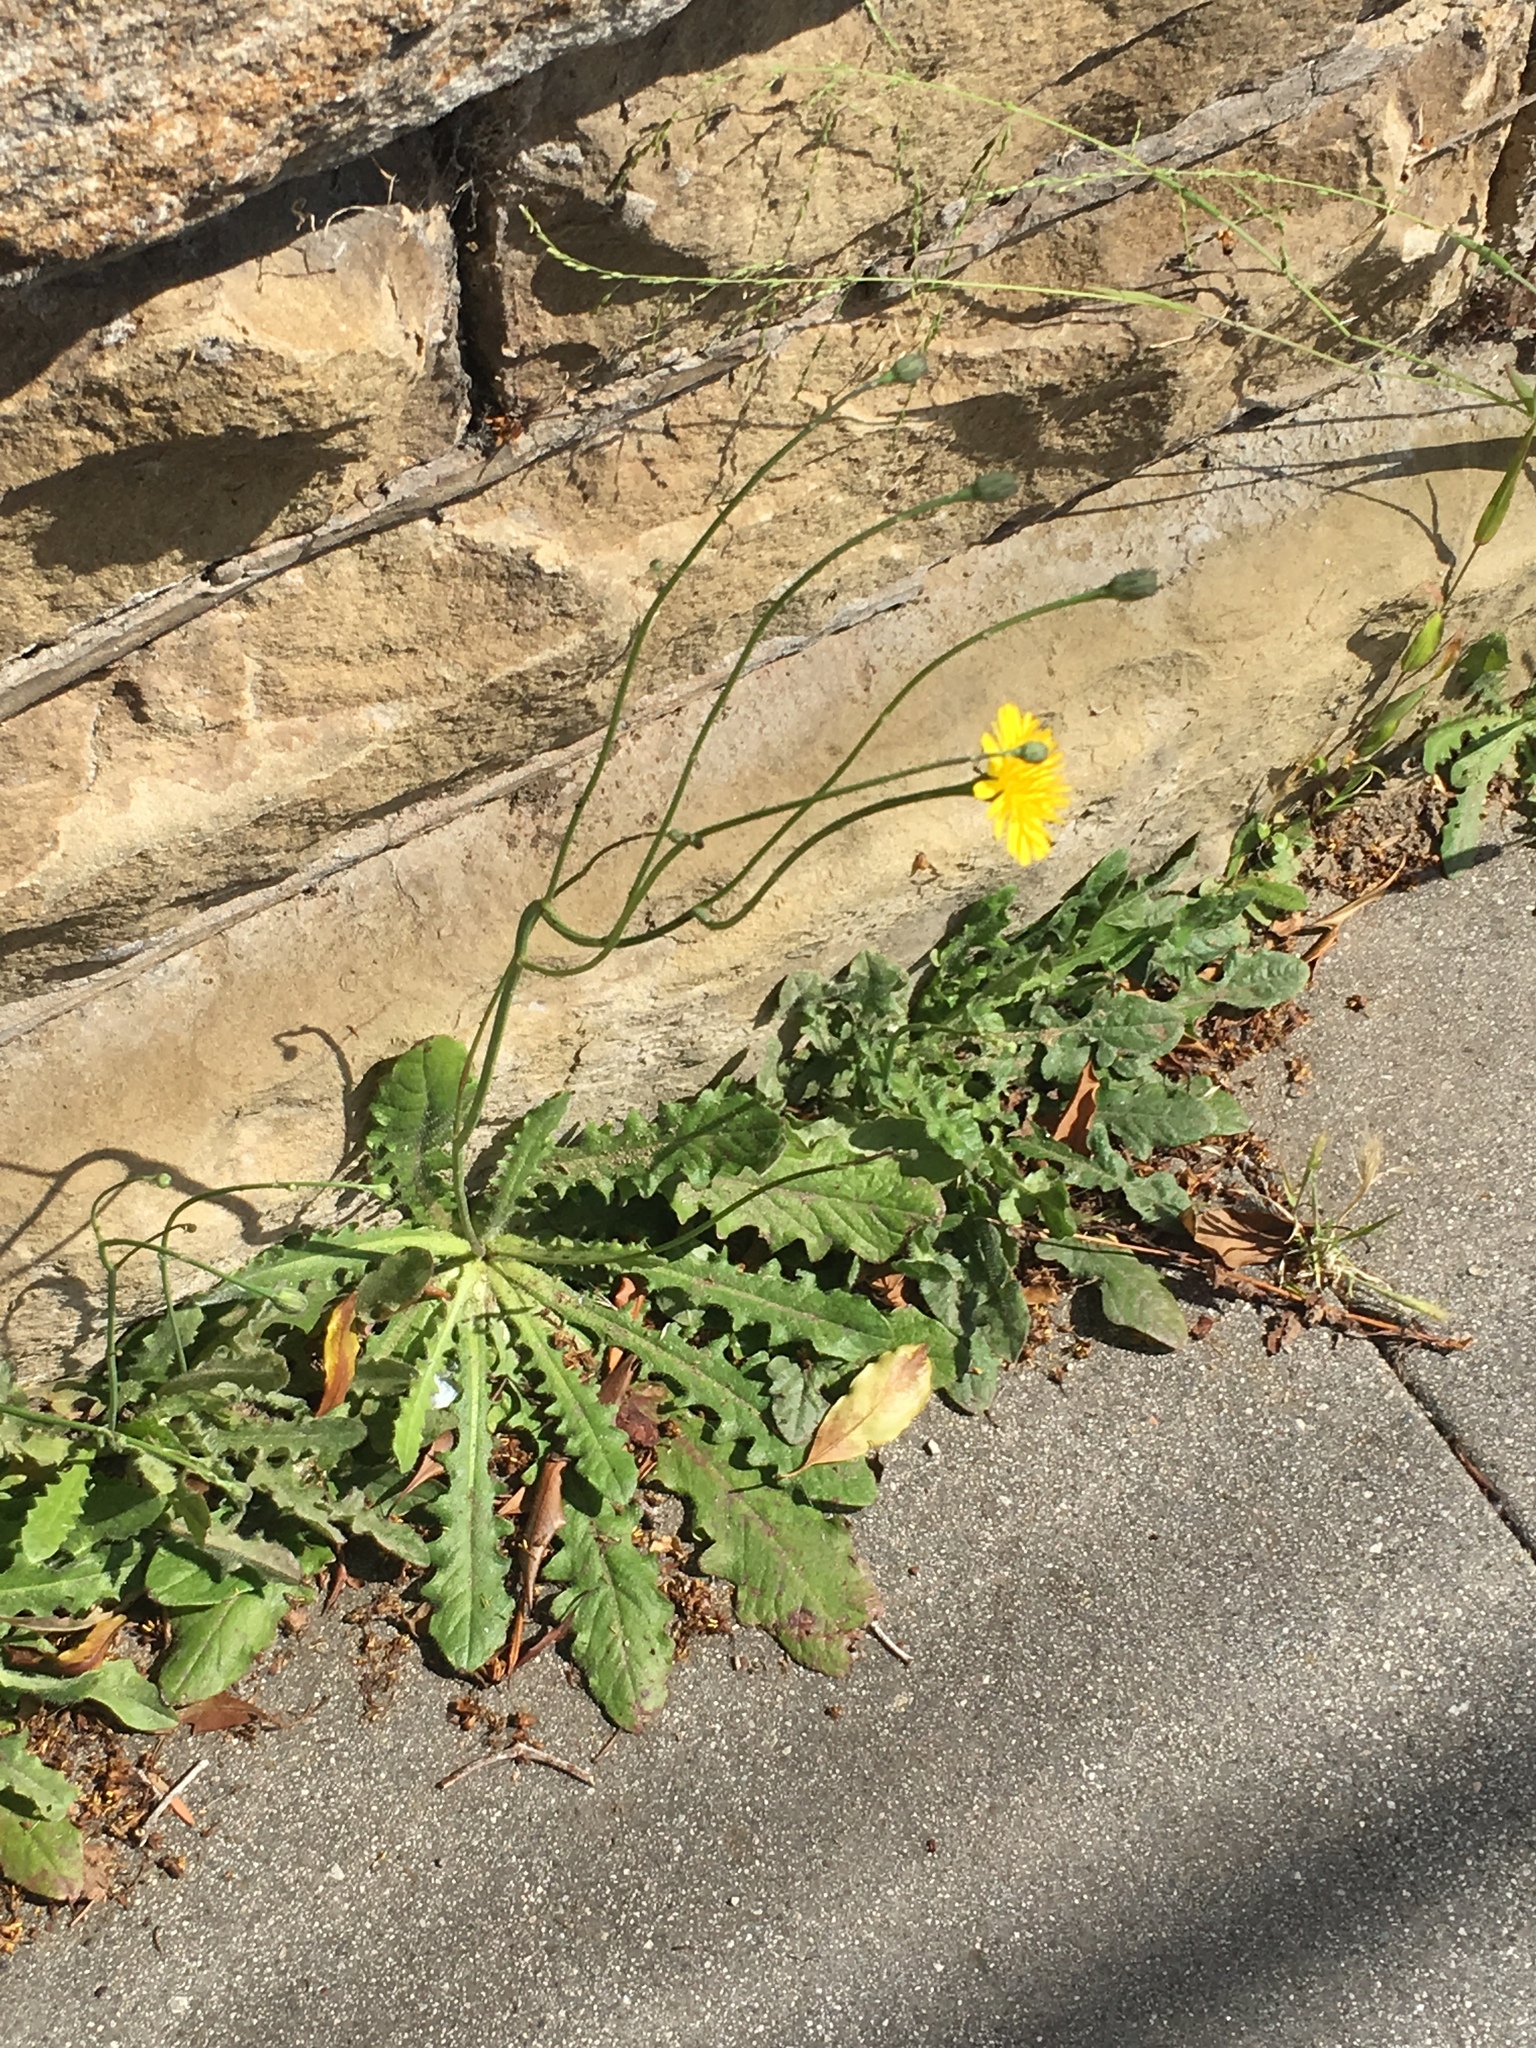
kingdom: Plantae
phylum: Tracheophyta
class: Magnoliopsida
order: Asterales
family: Asteraceae
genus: Hypochaeris
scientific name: Hypochaeris radicata
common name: Flatweed
